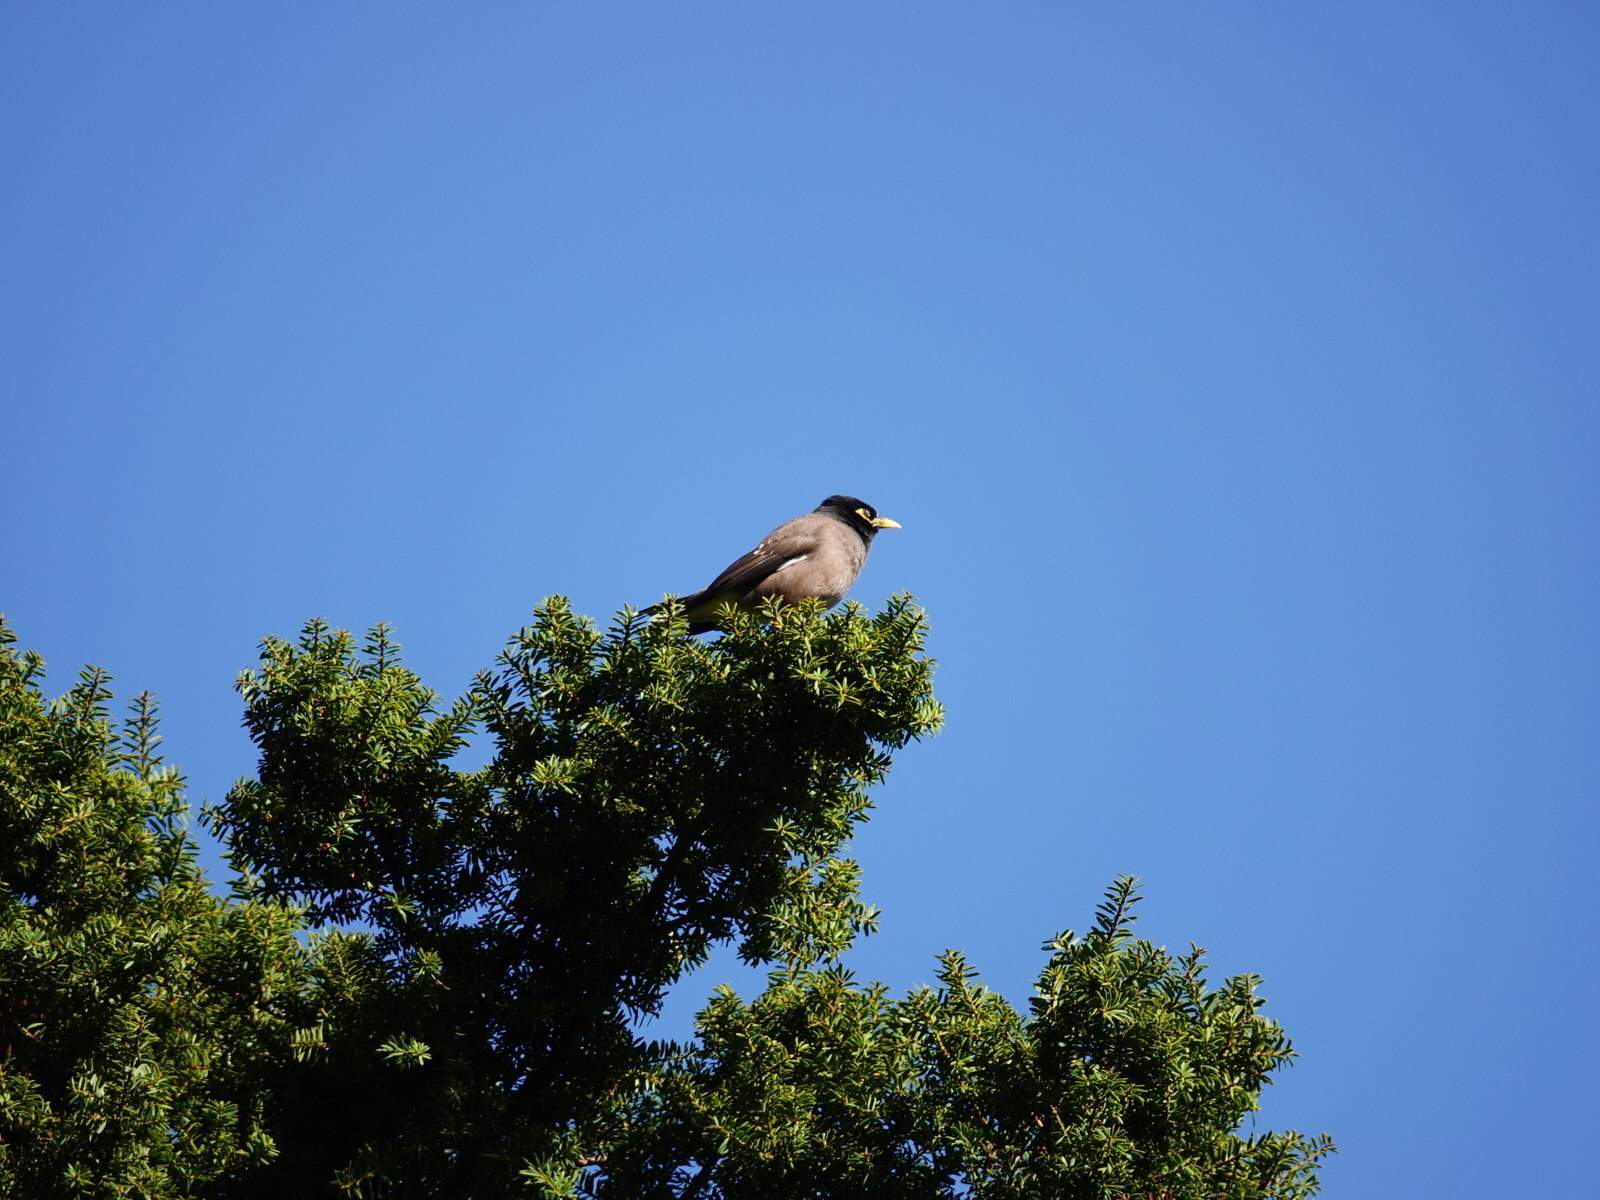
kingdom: Animalia
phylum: Chordata
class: Aves
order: Passeriformes
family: Sturnidae
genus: Acridotheres
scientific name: Acridotheres tristis
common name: Common myna
